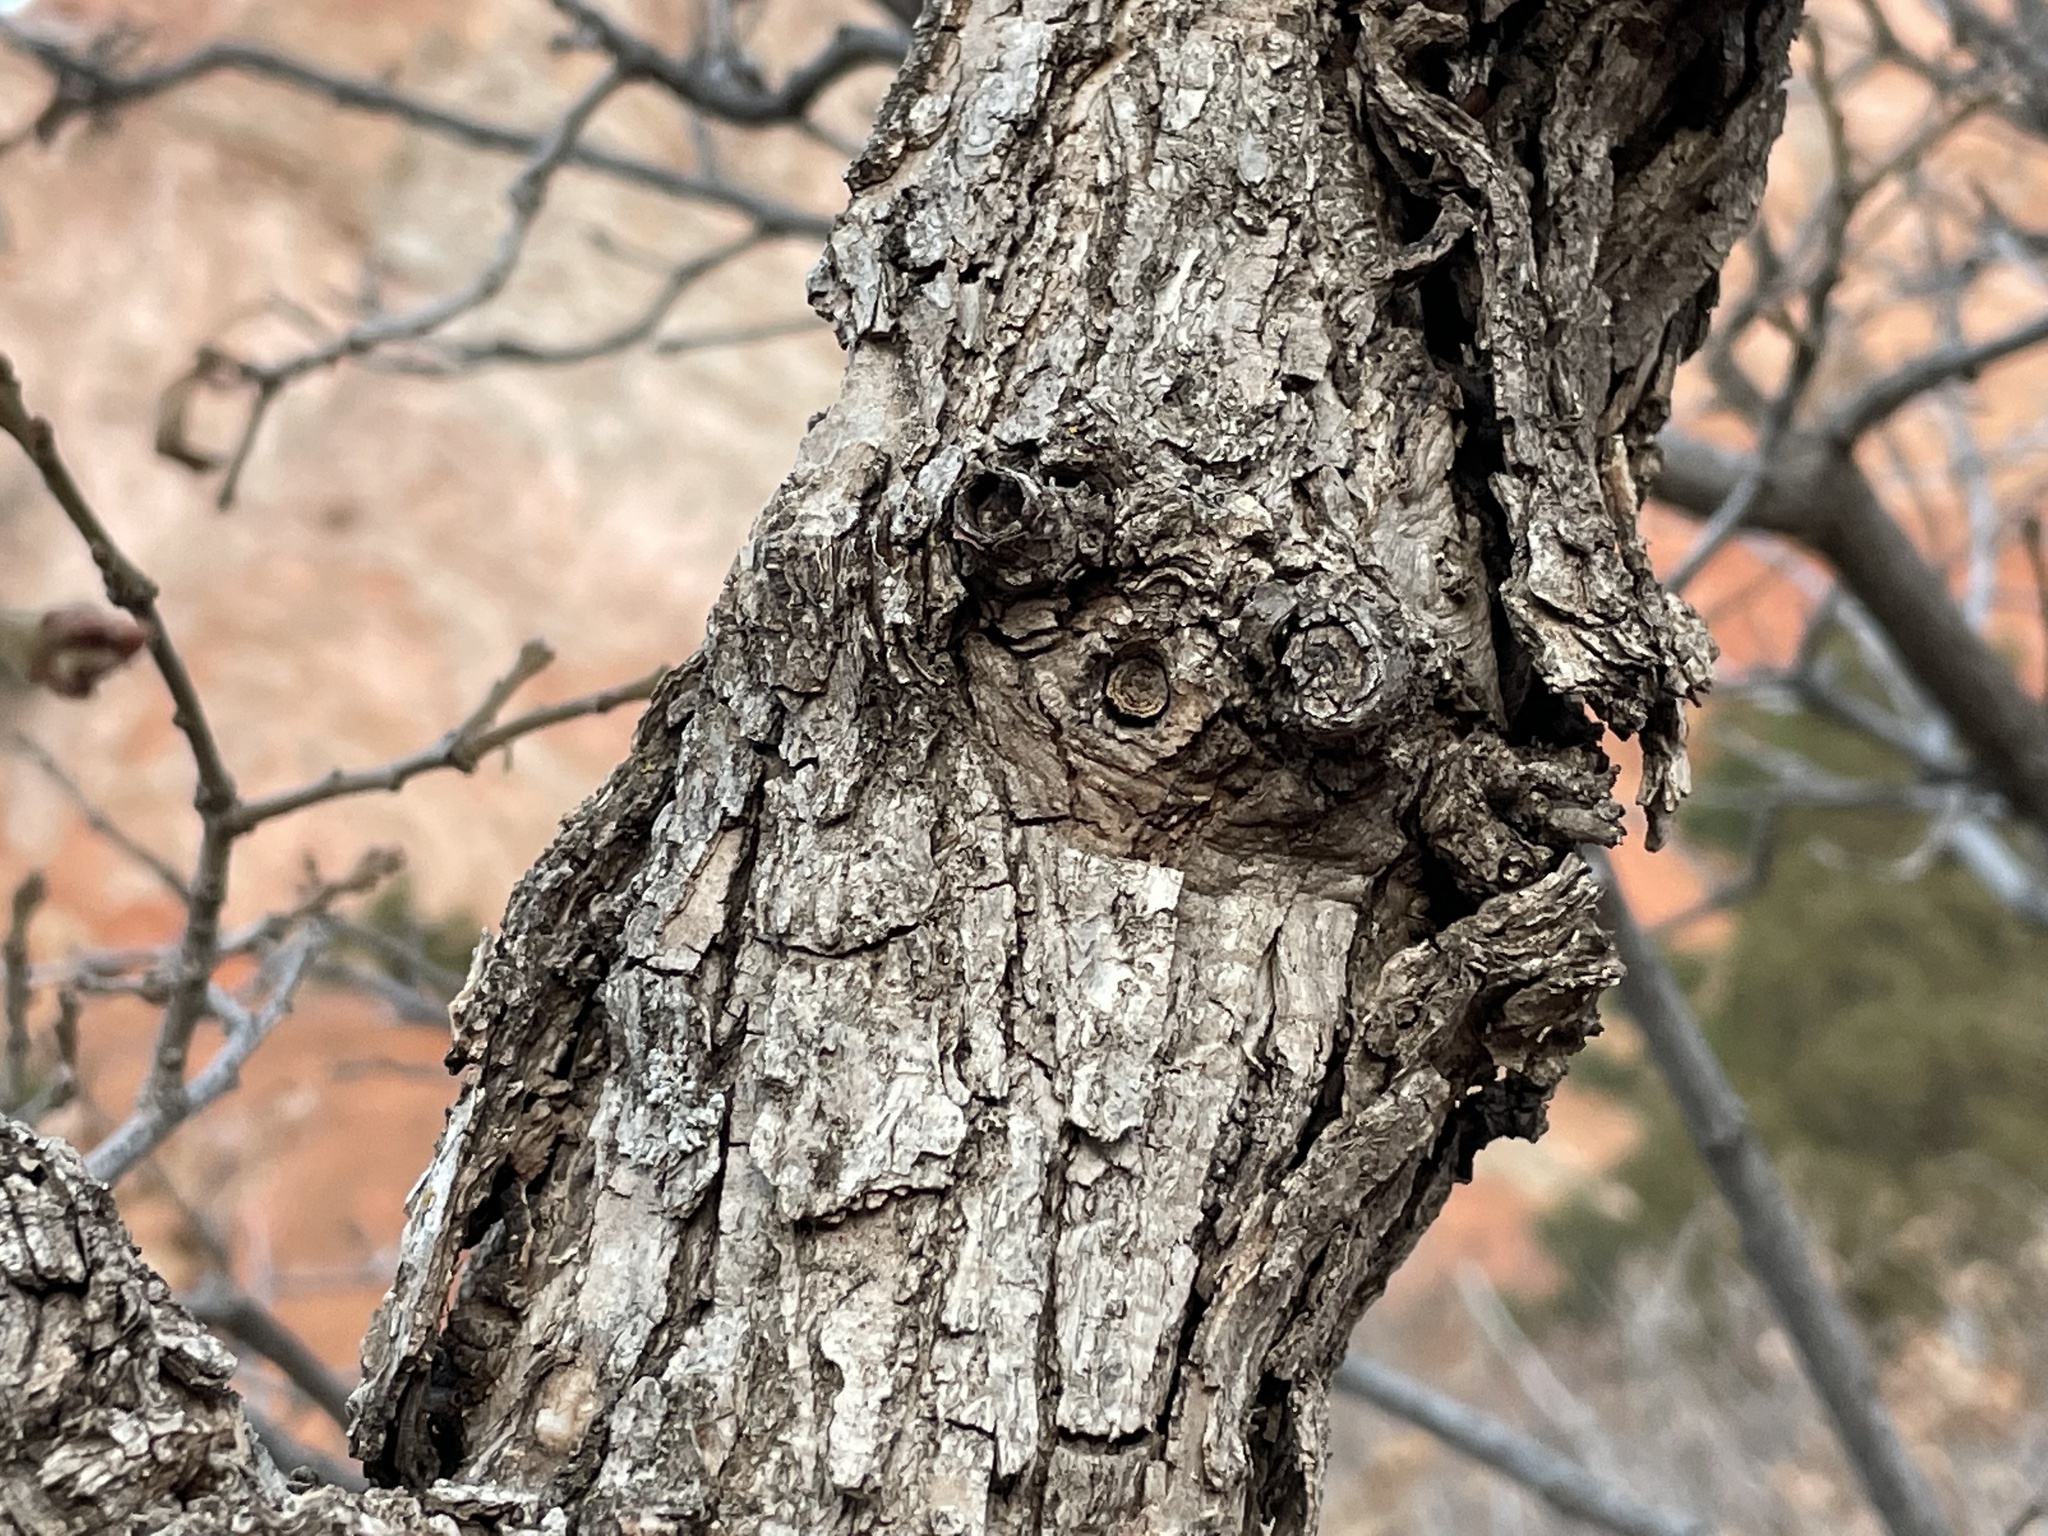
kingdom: Plantae
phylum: Tracheophyta
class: Magnoliopsida
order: Fagales
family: Fagaceae
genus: Quercus
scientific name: Quercus gambelii
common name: Gambel oak
